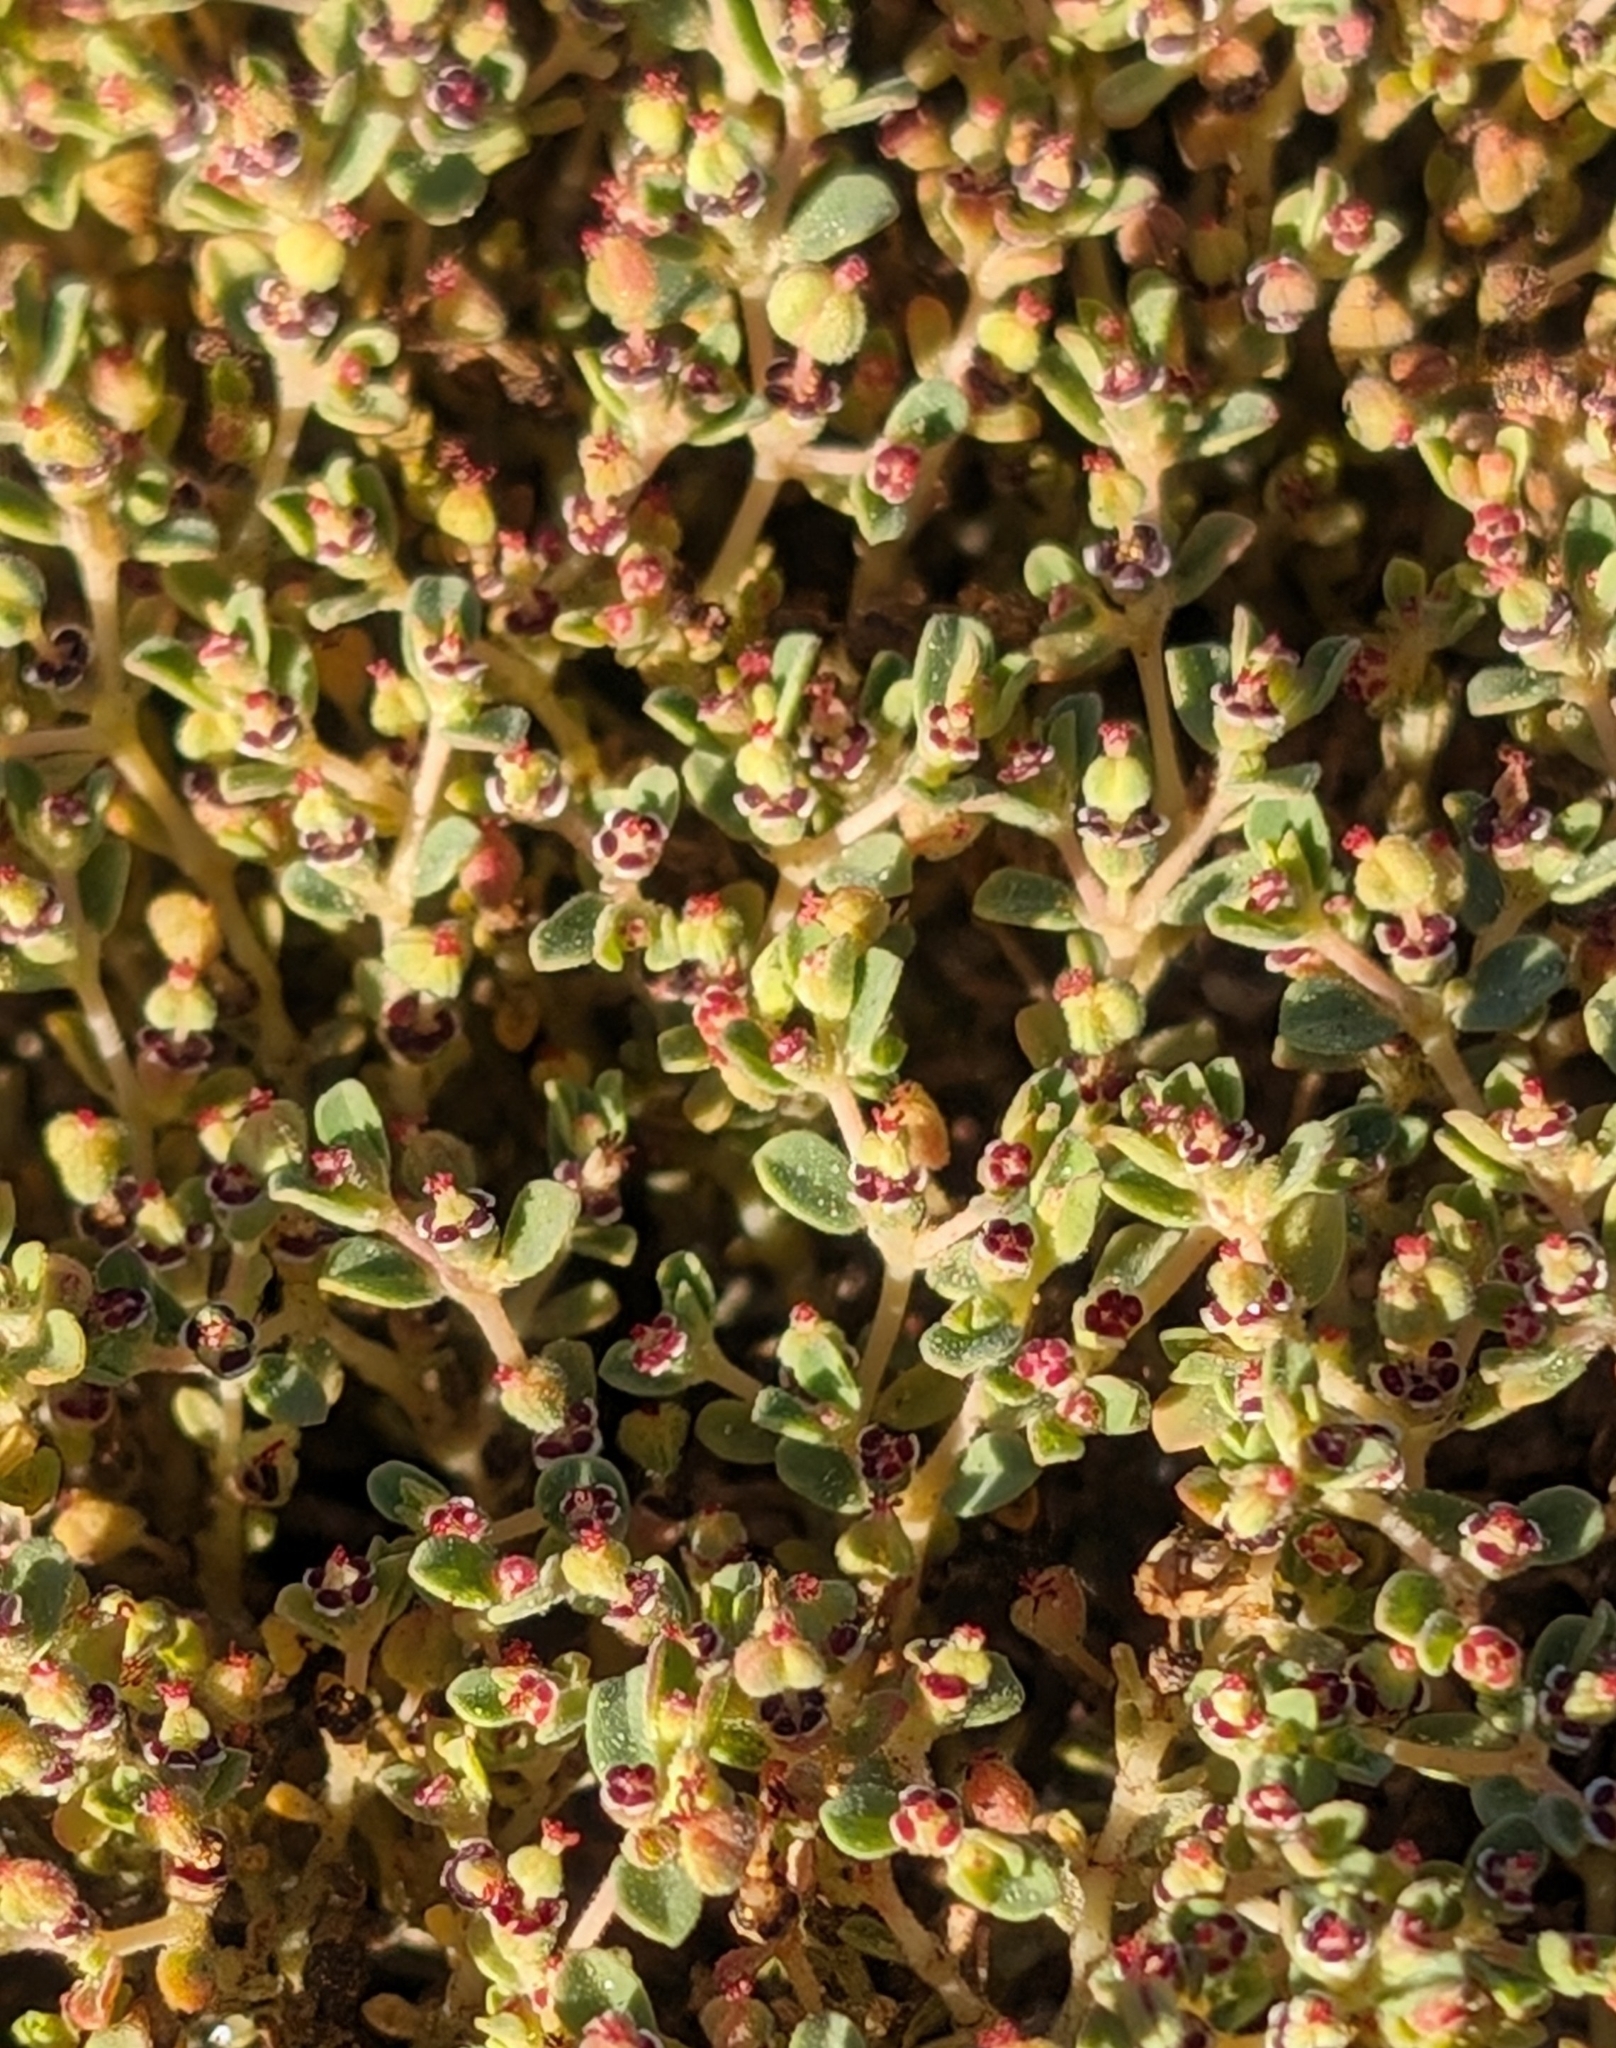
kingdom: Plantae
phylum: Tracheophyta
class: Magnoliopsida
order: Malpighiales
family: Euphorbiaceae
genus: Euphorbia
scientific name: Euphorbia polycarpa
